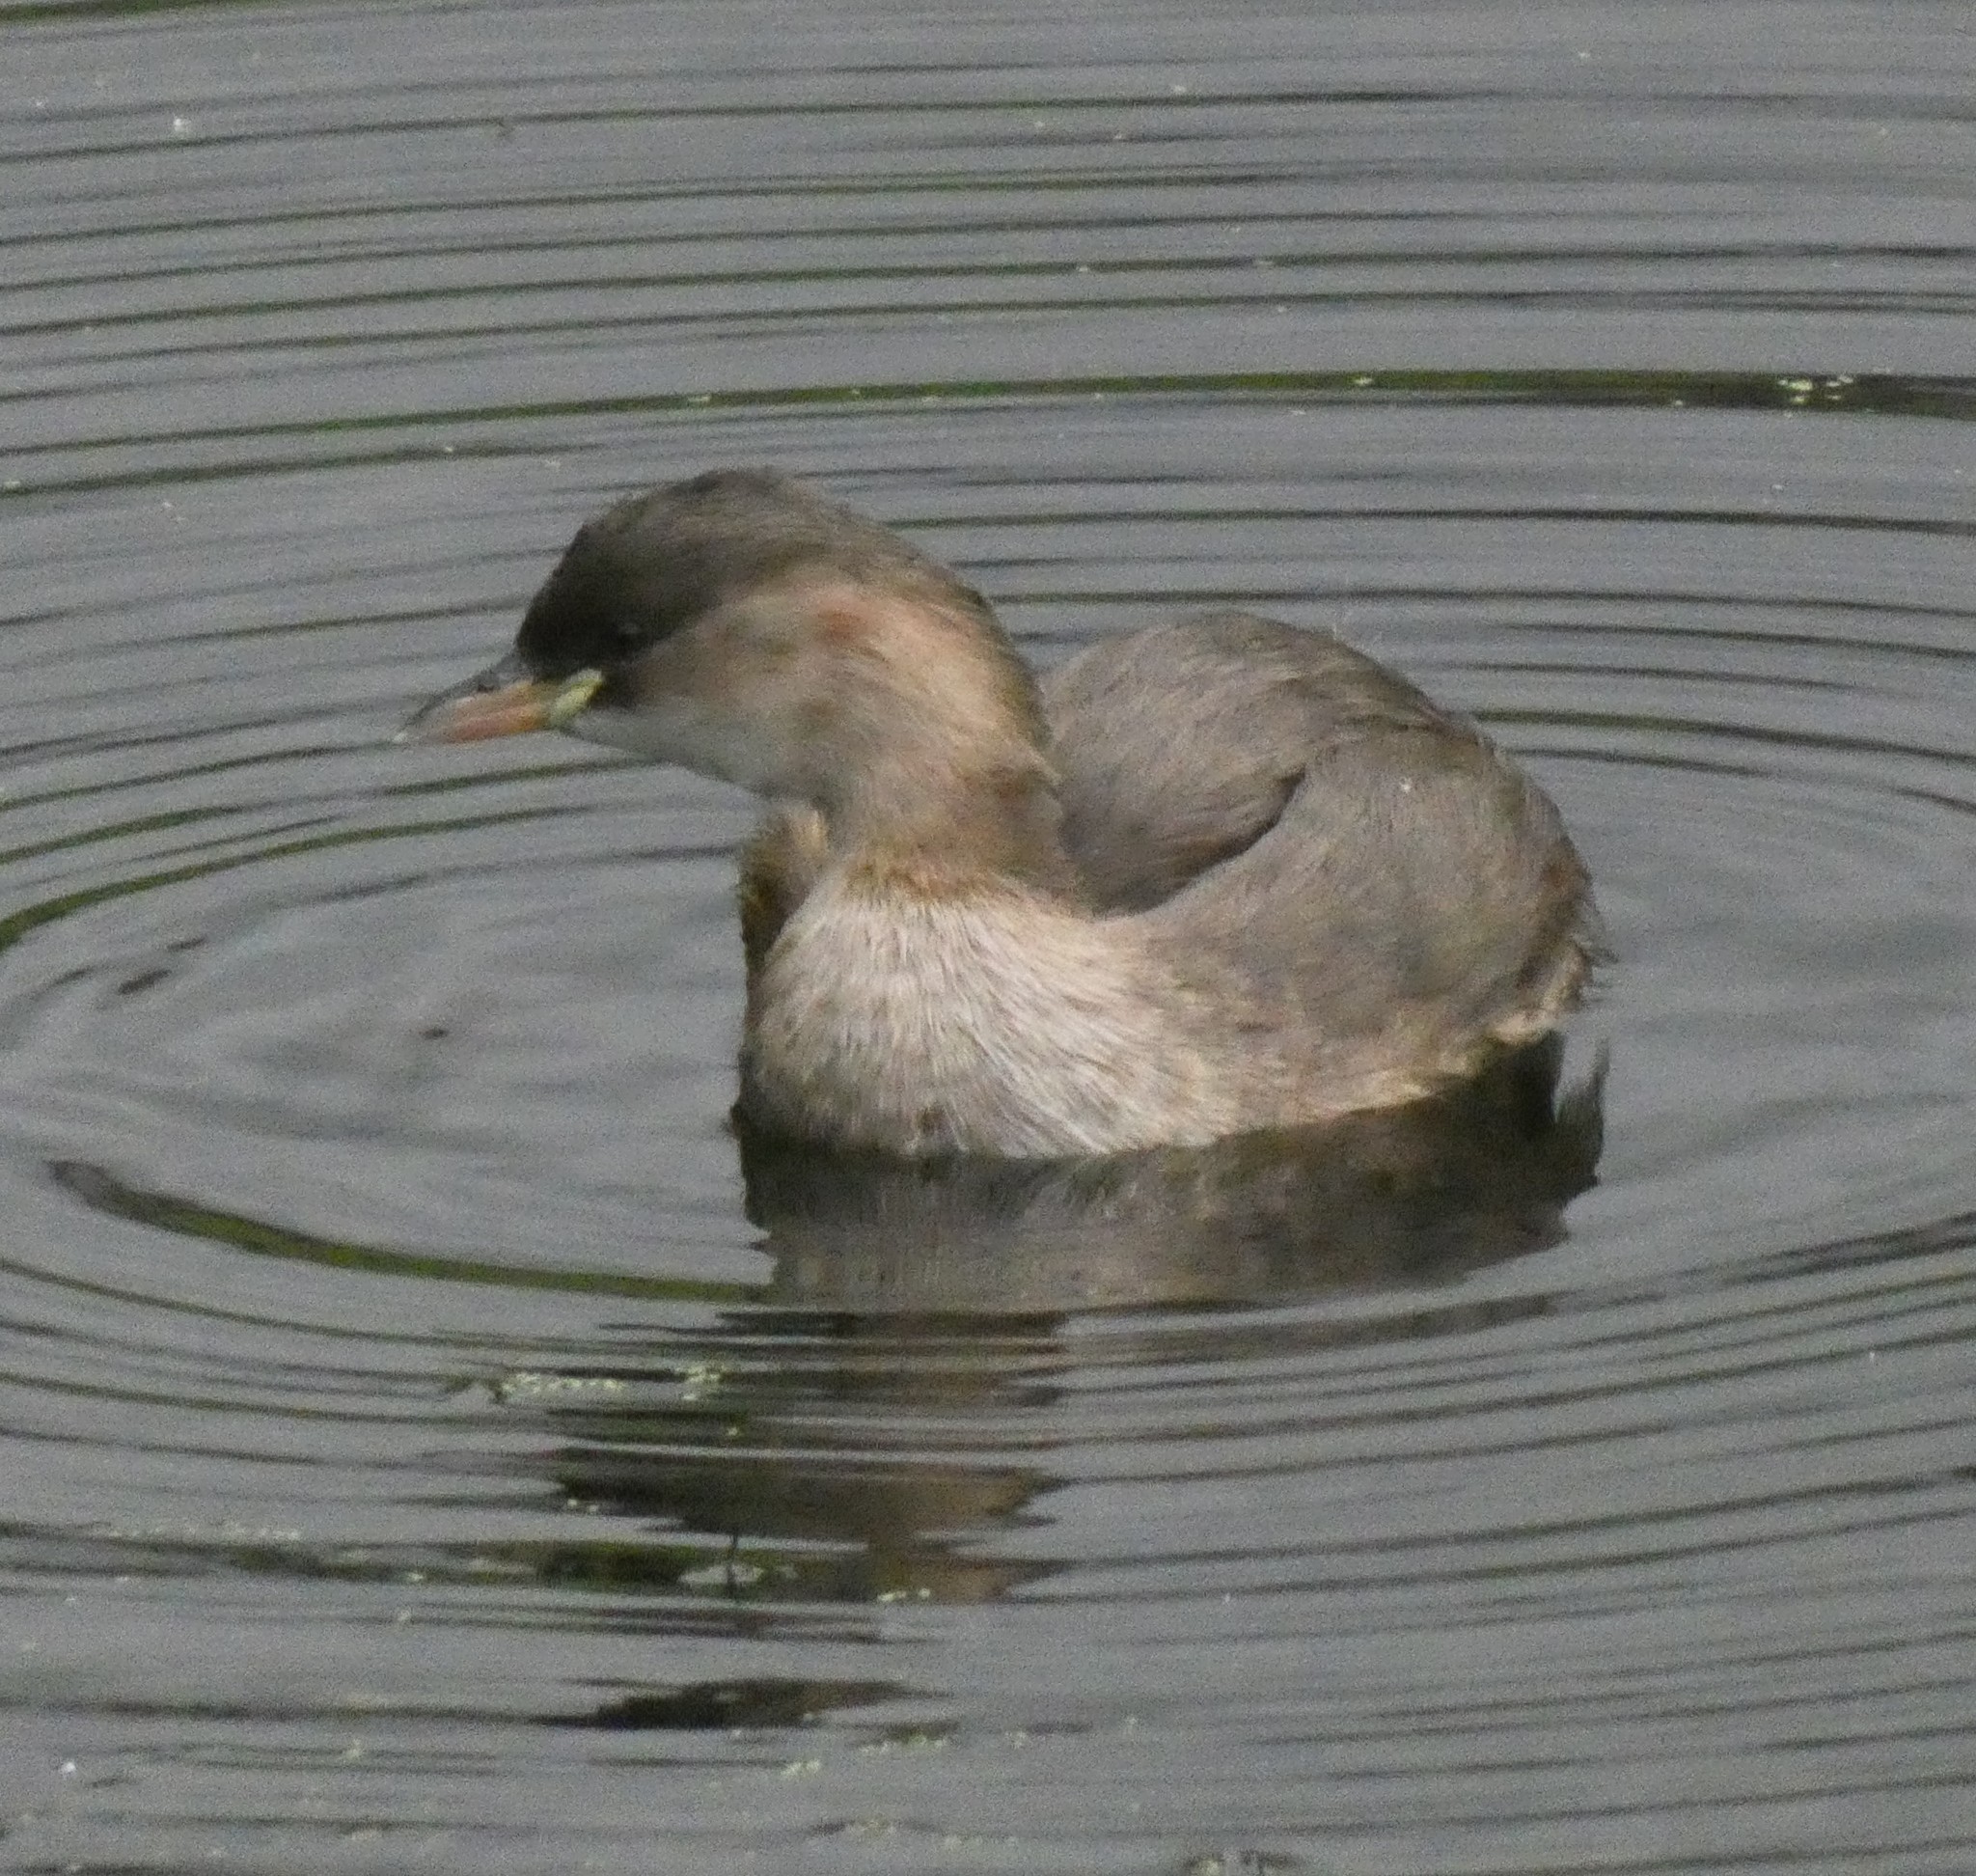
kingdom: Animalia
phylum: Chordata
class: Aves
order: Podicipediformes
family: Podicipedidae
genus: Tachybaptus
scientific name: Tachybaptus ruficollis
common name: Little grebe
